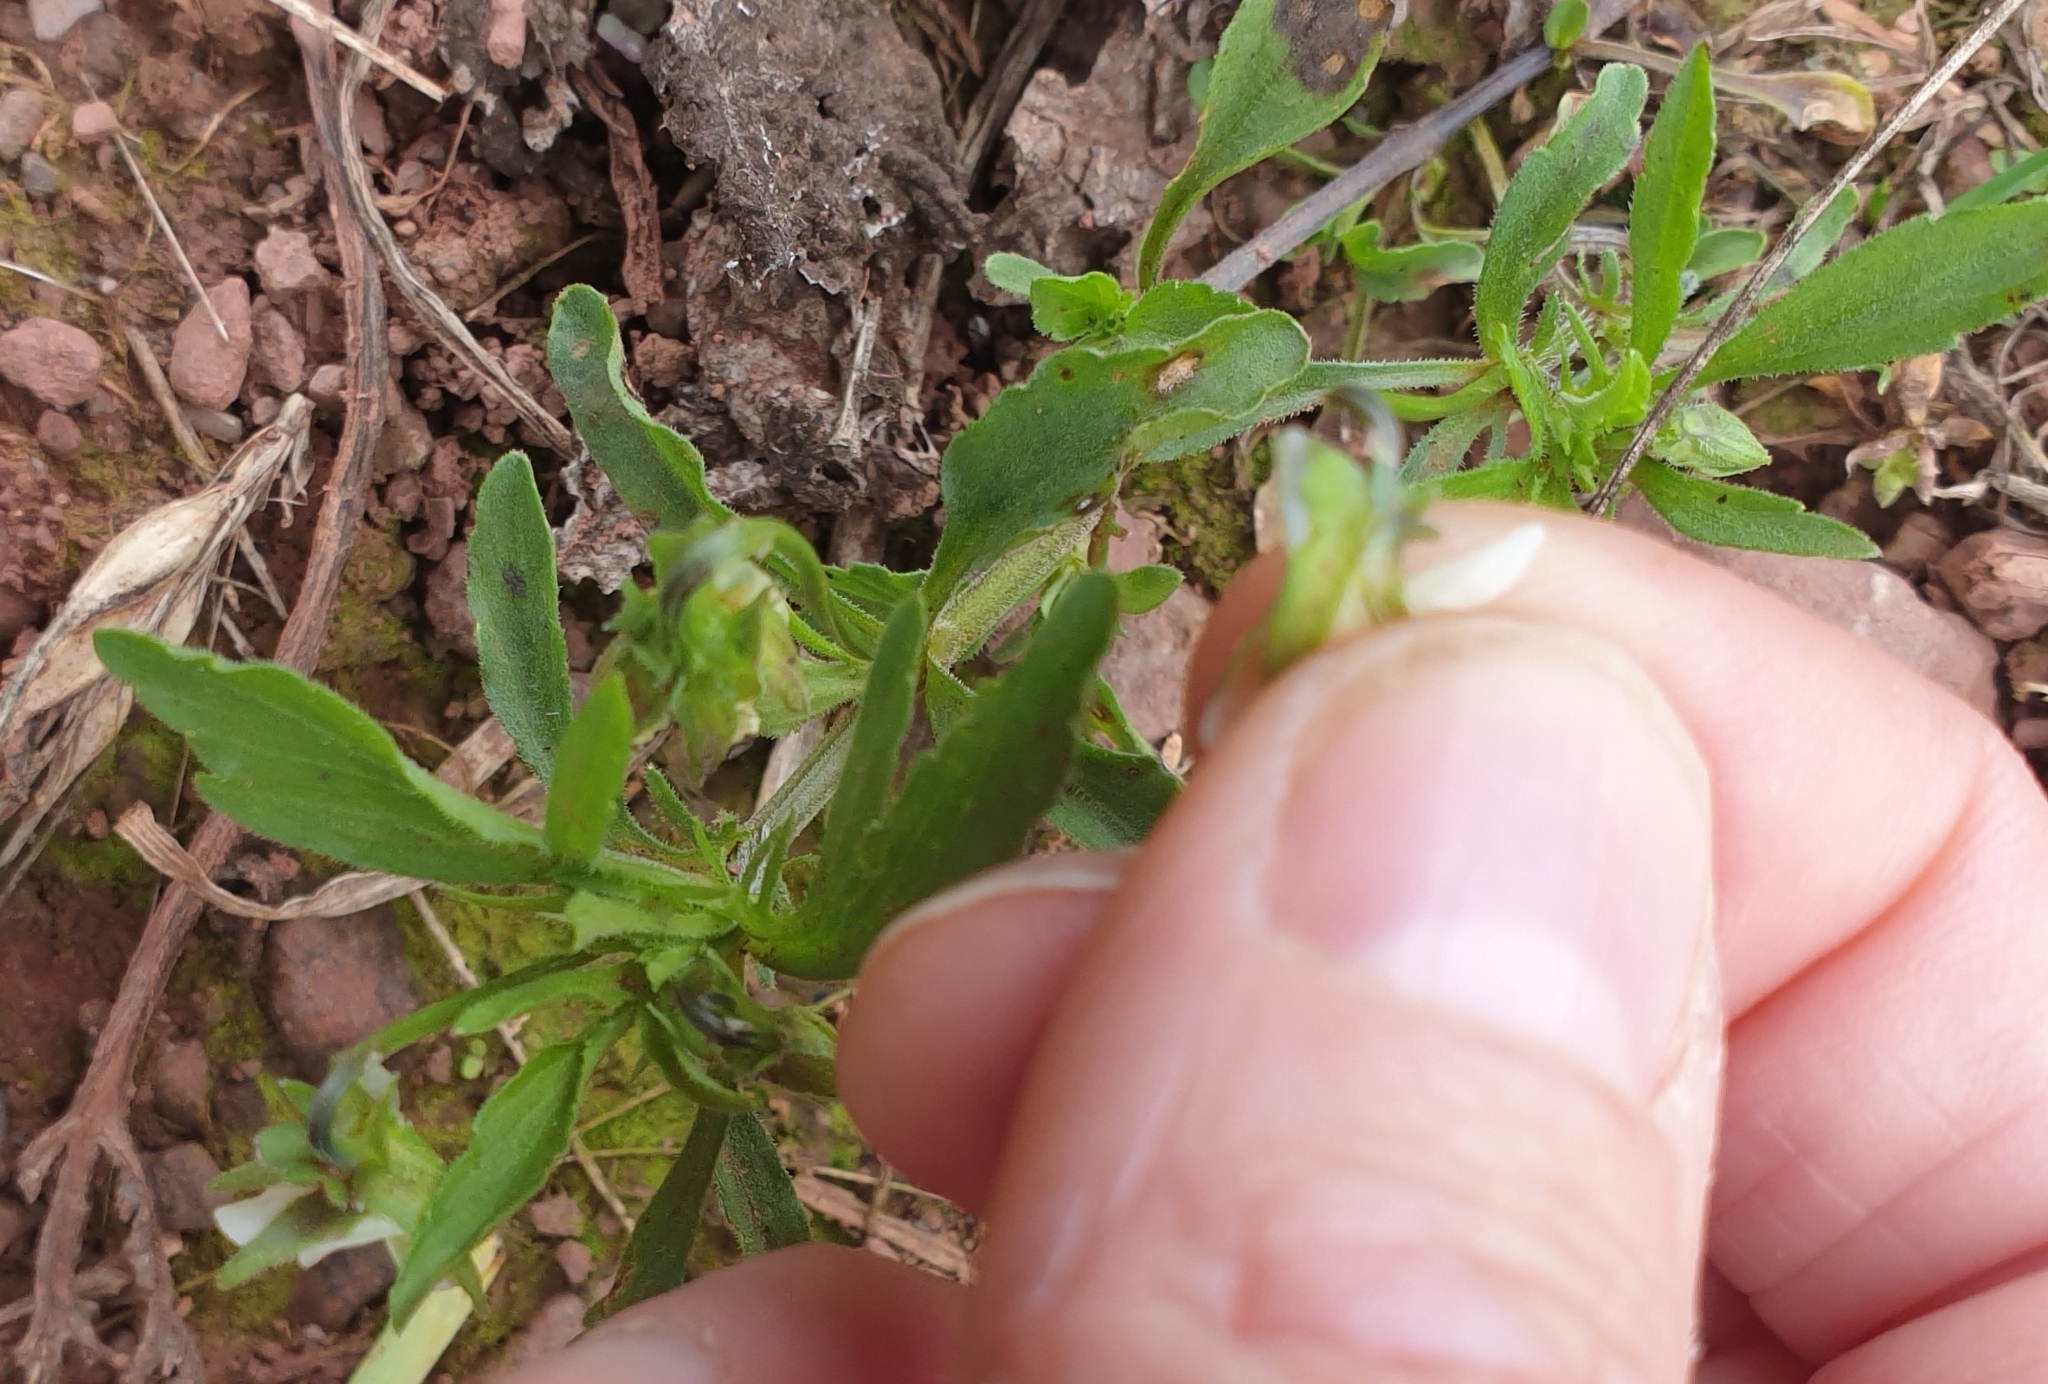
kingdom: Plantae
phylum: Tracheophyta
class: Magnoliopsida
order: Malpighiales
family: Violaceae
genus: Viola
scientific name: Viola arvensis
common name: Field pansy
